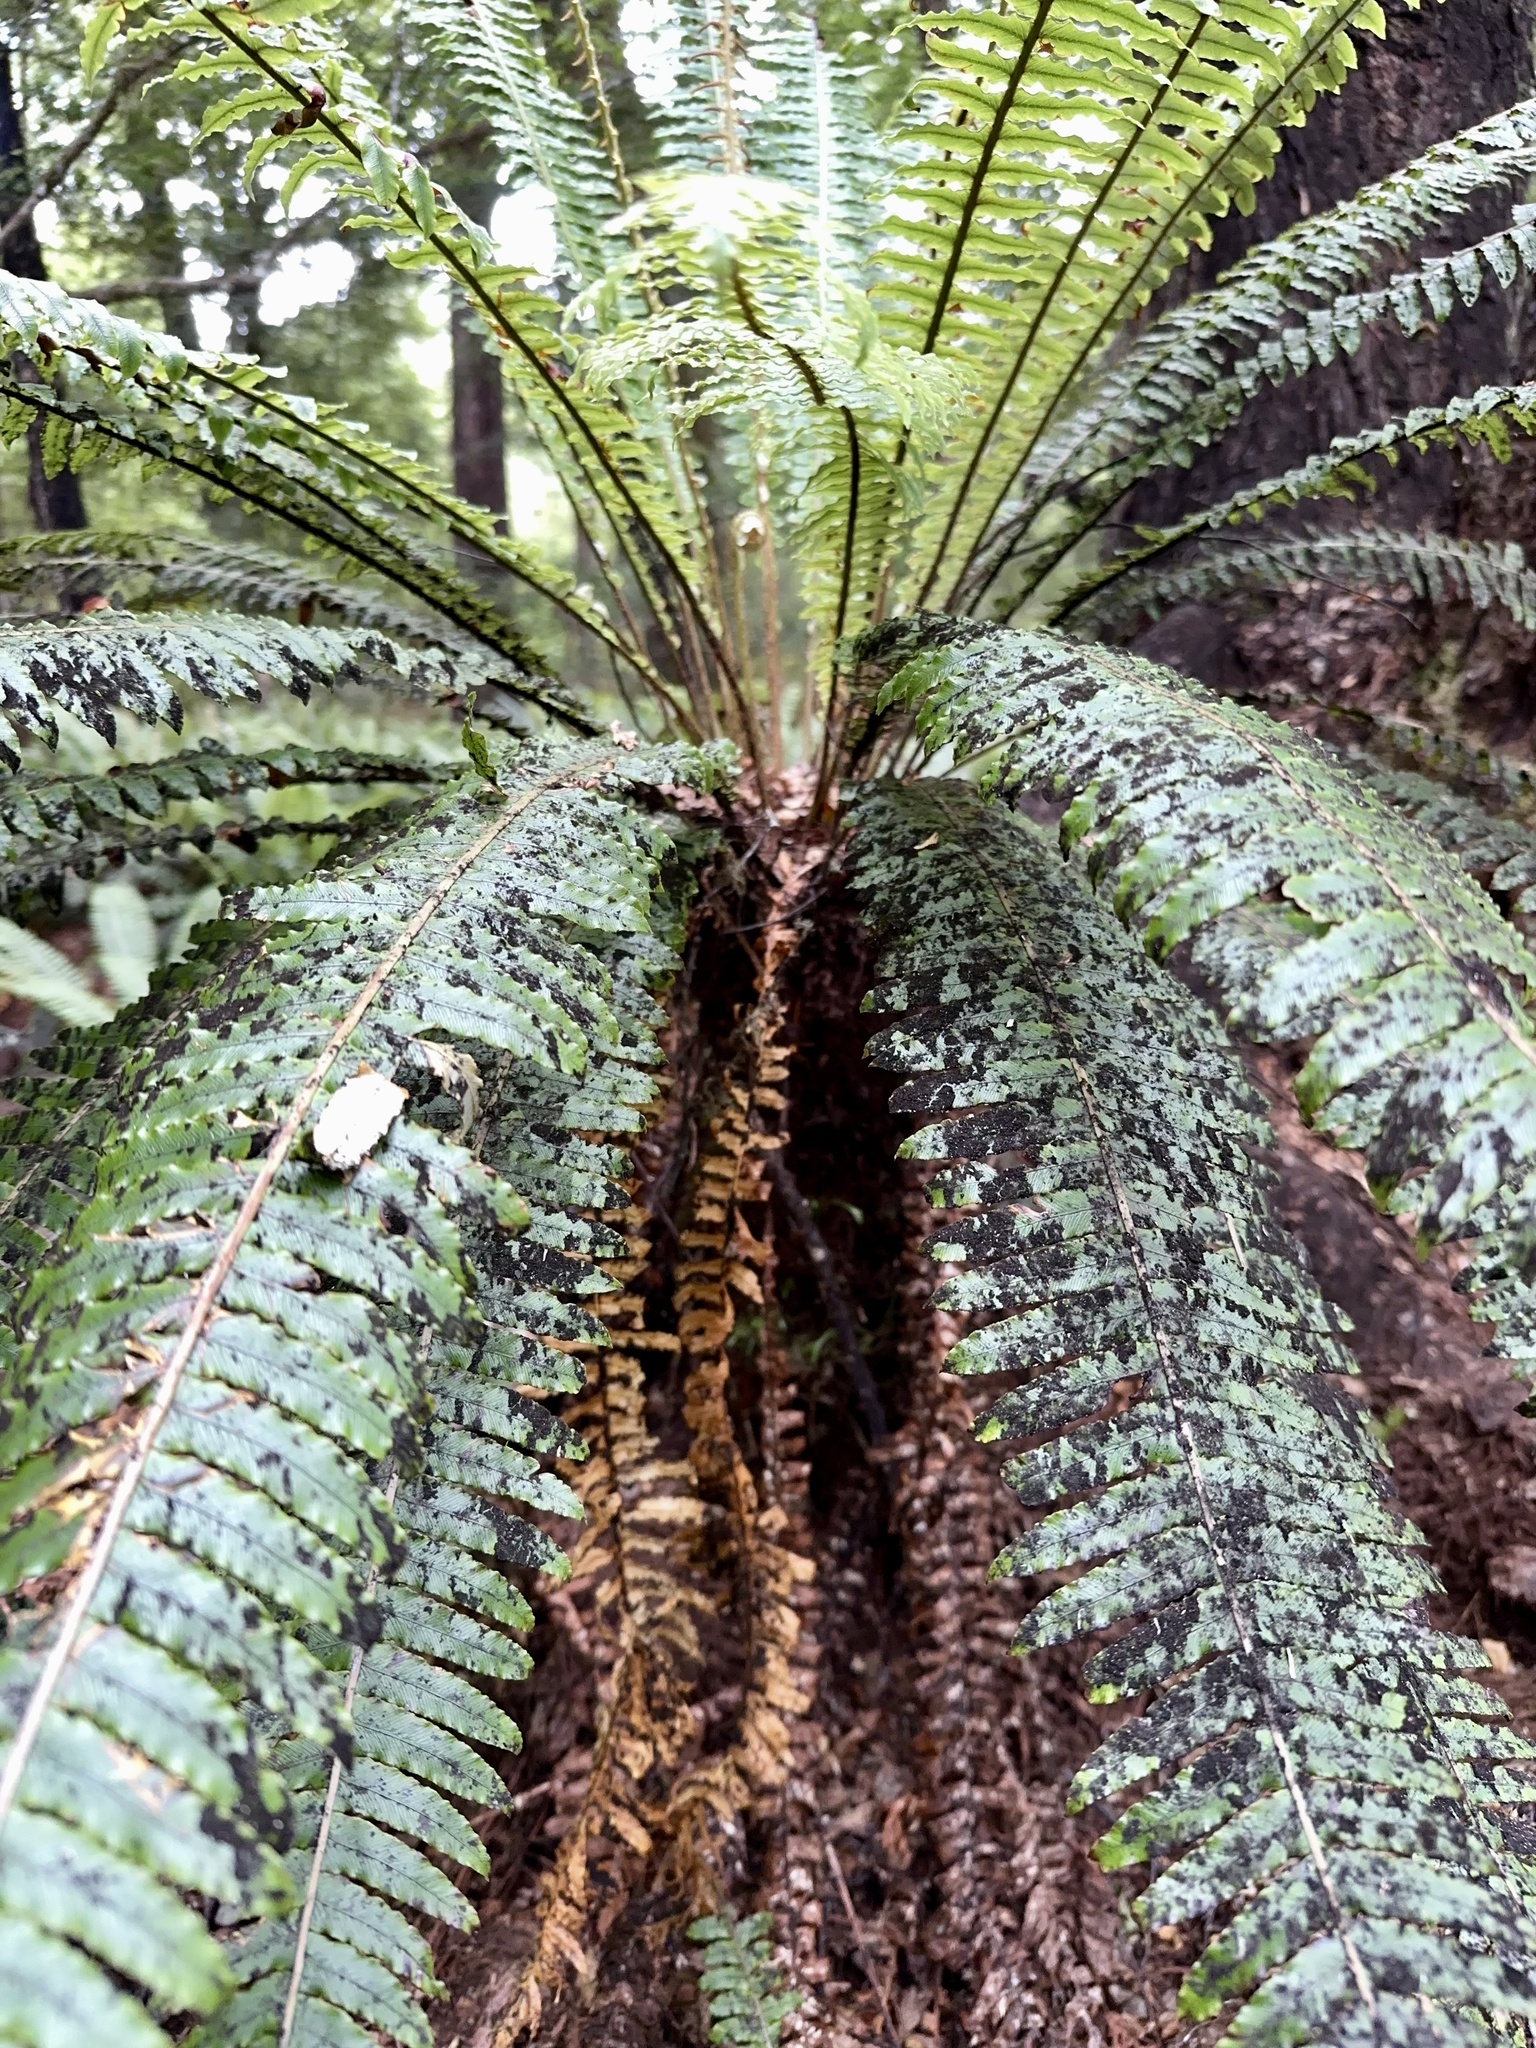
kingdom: Plantae
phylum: Tracheophyta
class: Polypodiopsida
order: Polypodiales
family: Blechnaceae
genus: Lomaria
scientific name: Lomaria discolor
